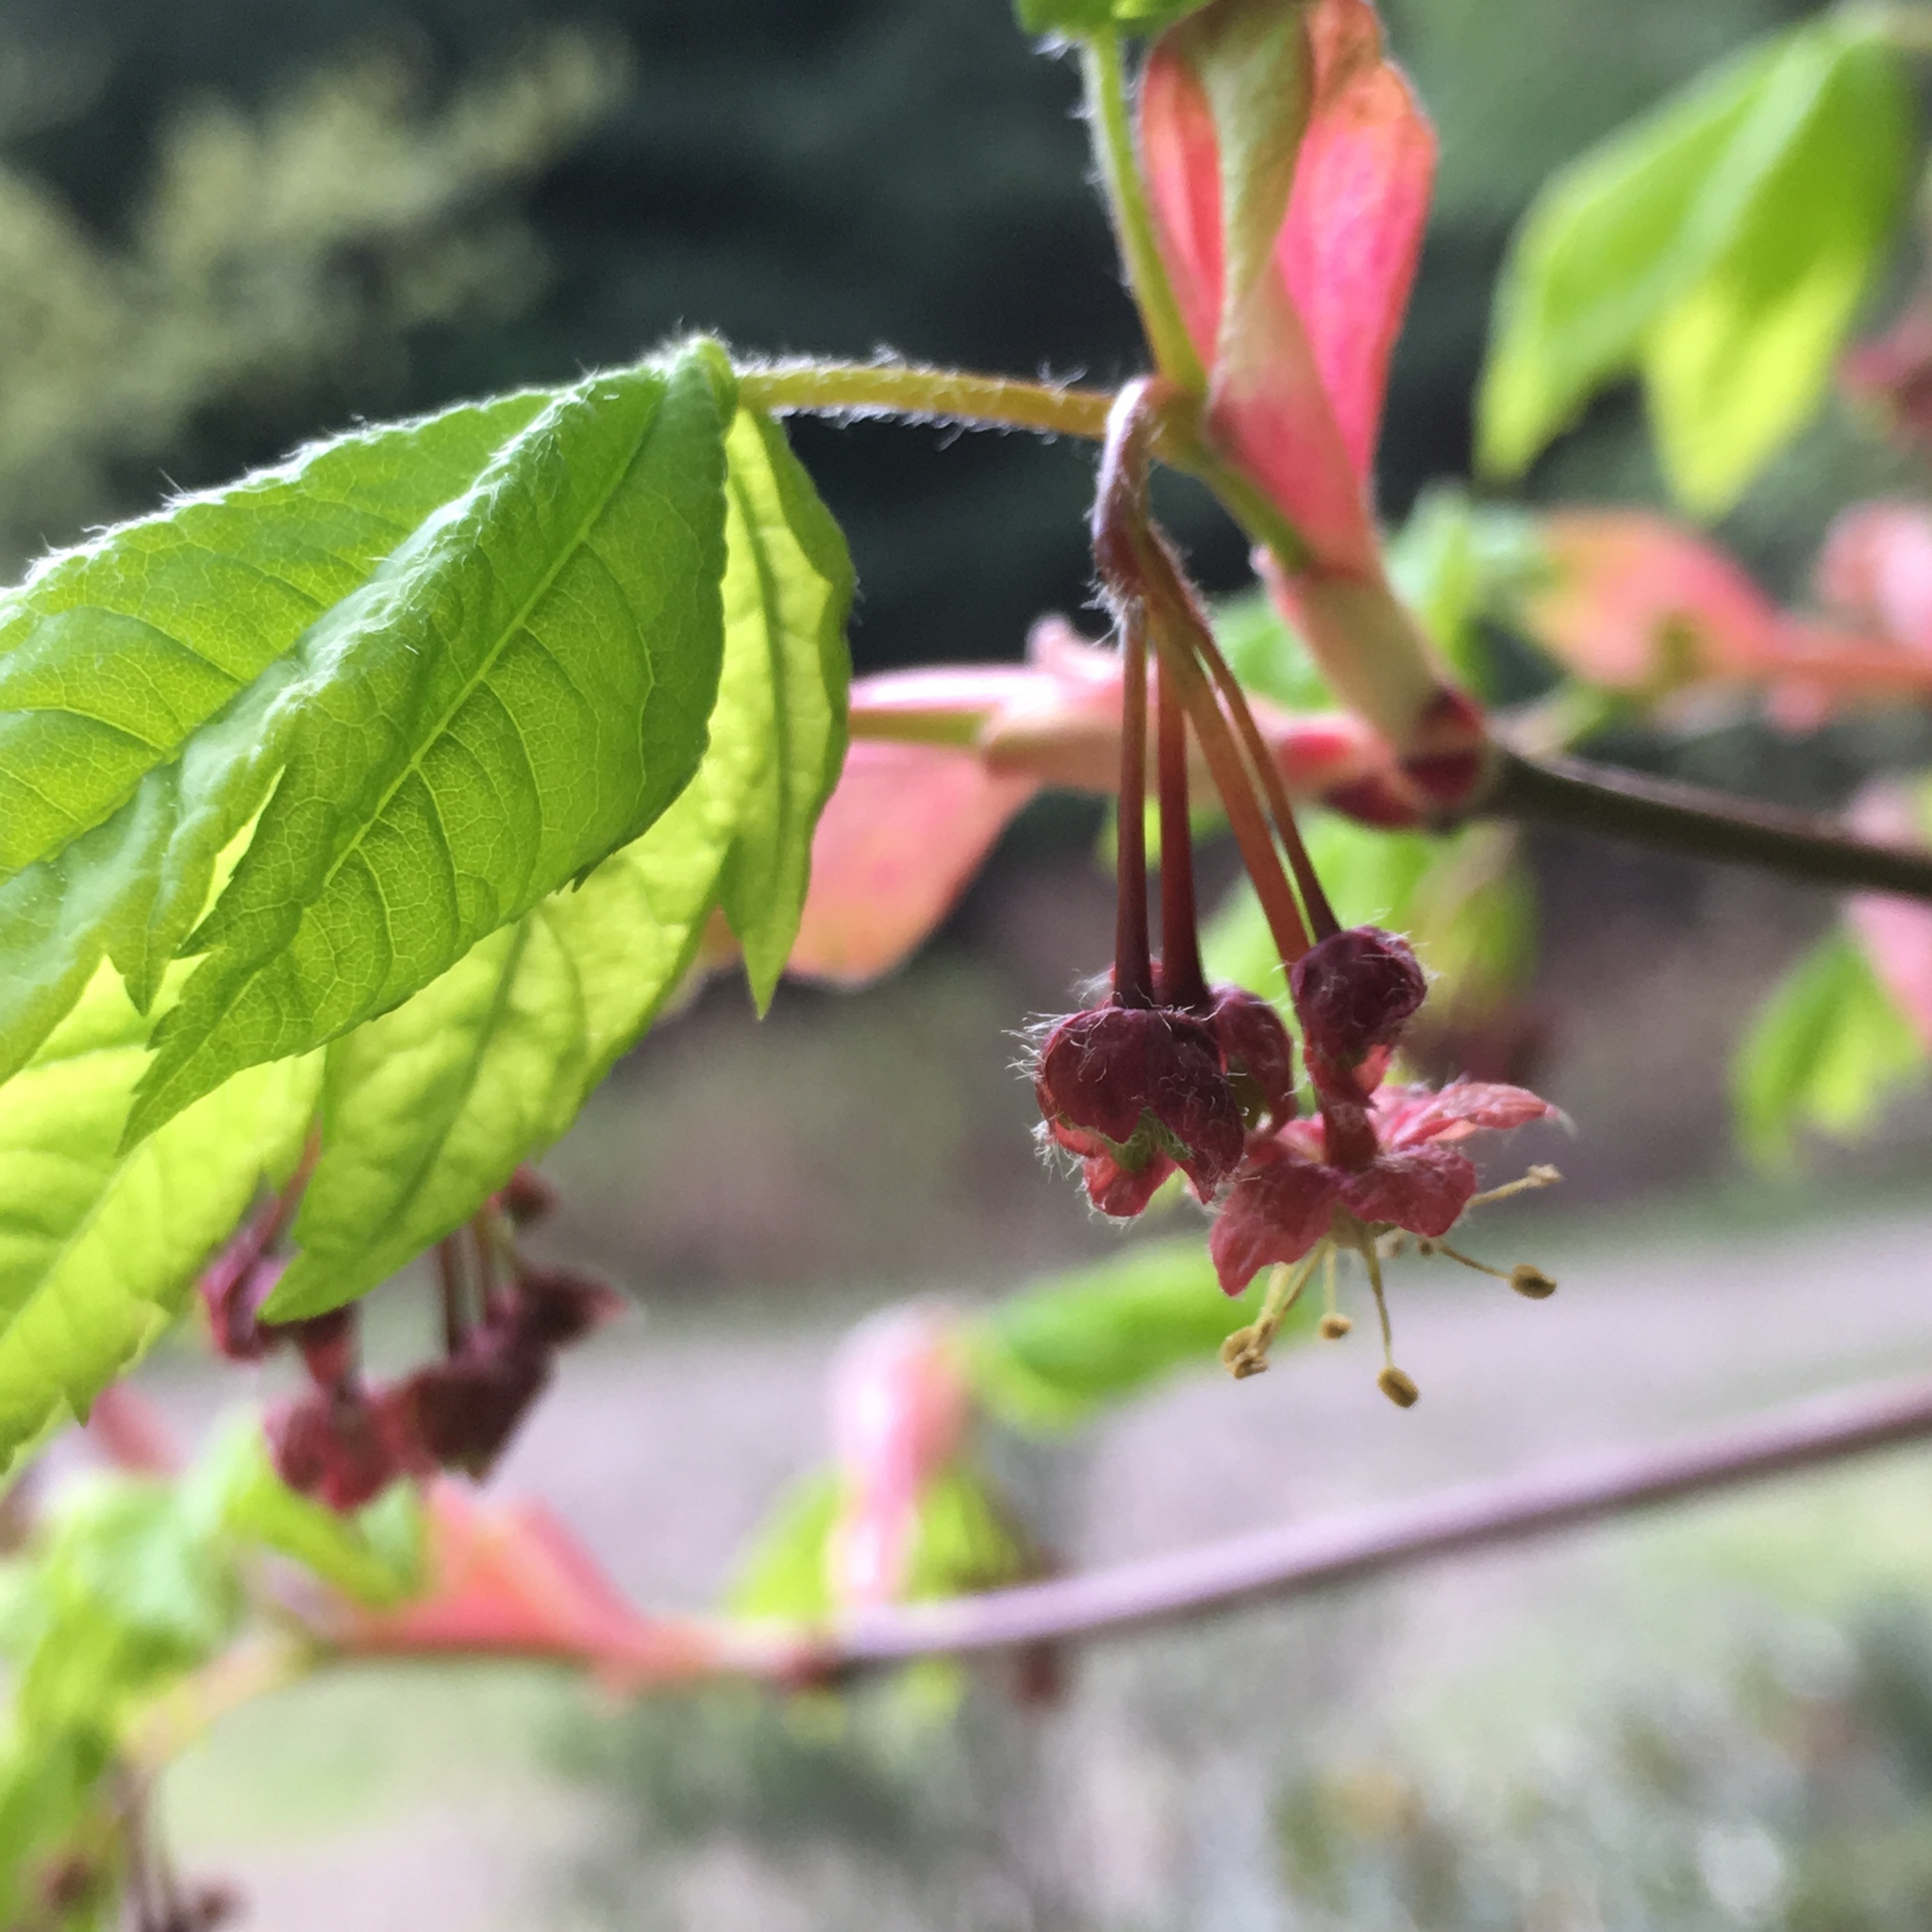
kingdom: Plantae
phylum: Tracheophyta
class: Magnoliopsida
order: Sapindales
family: Sapindaceae
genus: Acer
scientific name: Acer circinatum
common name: Vine maple
